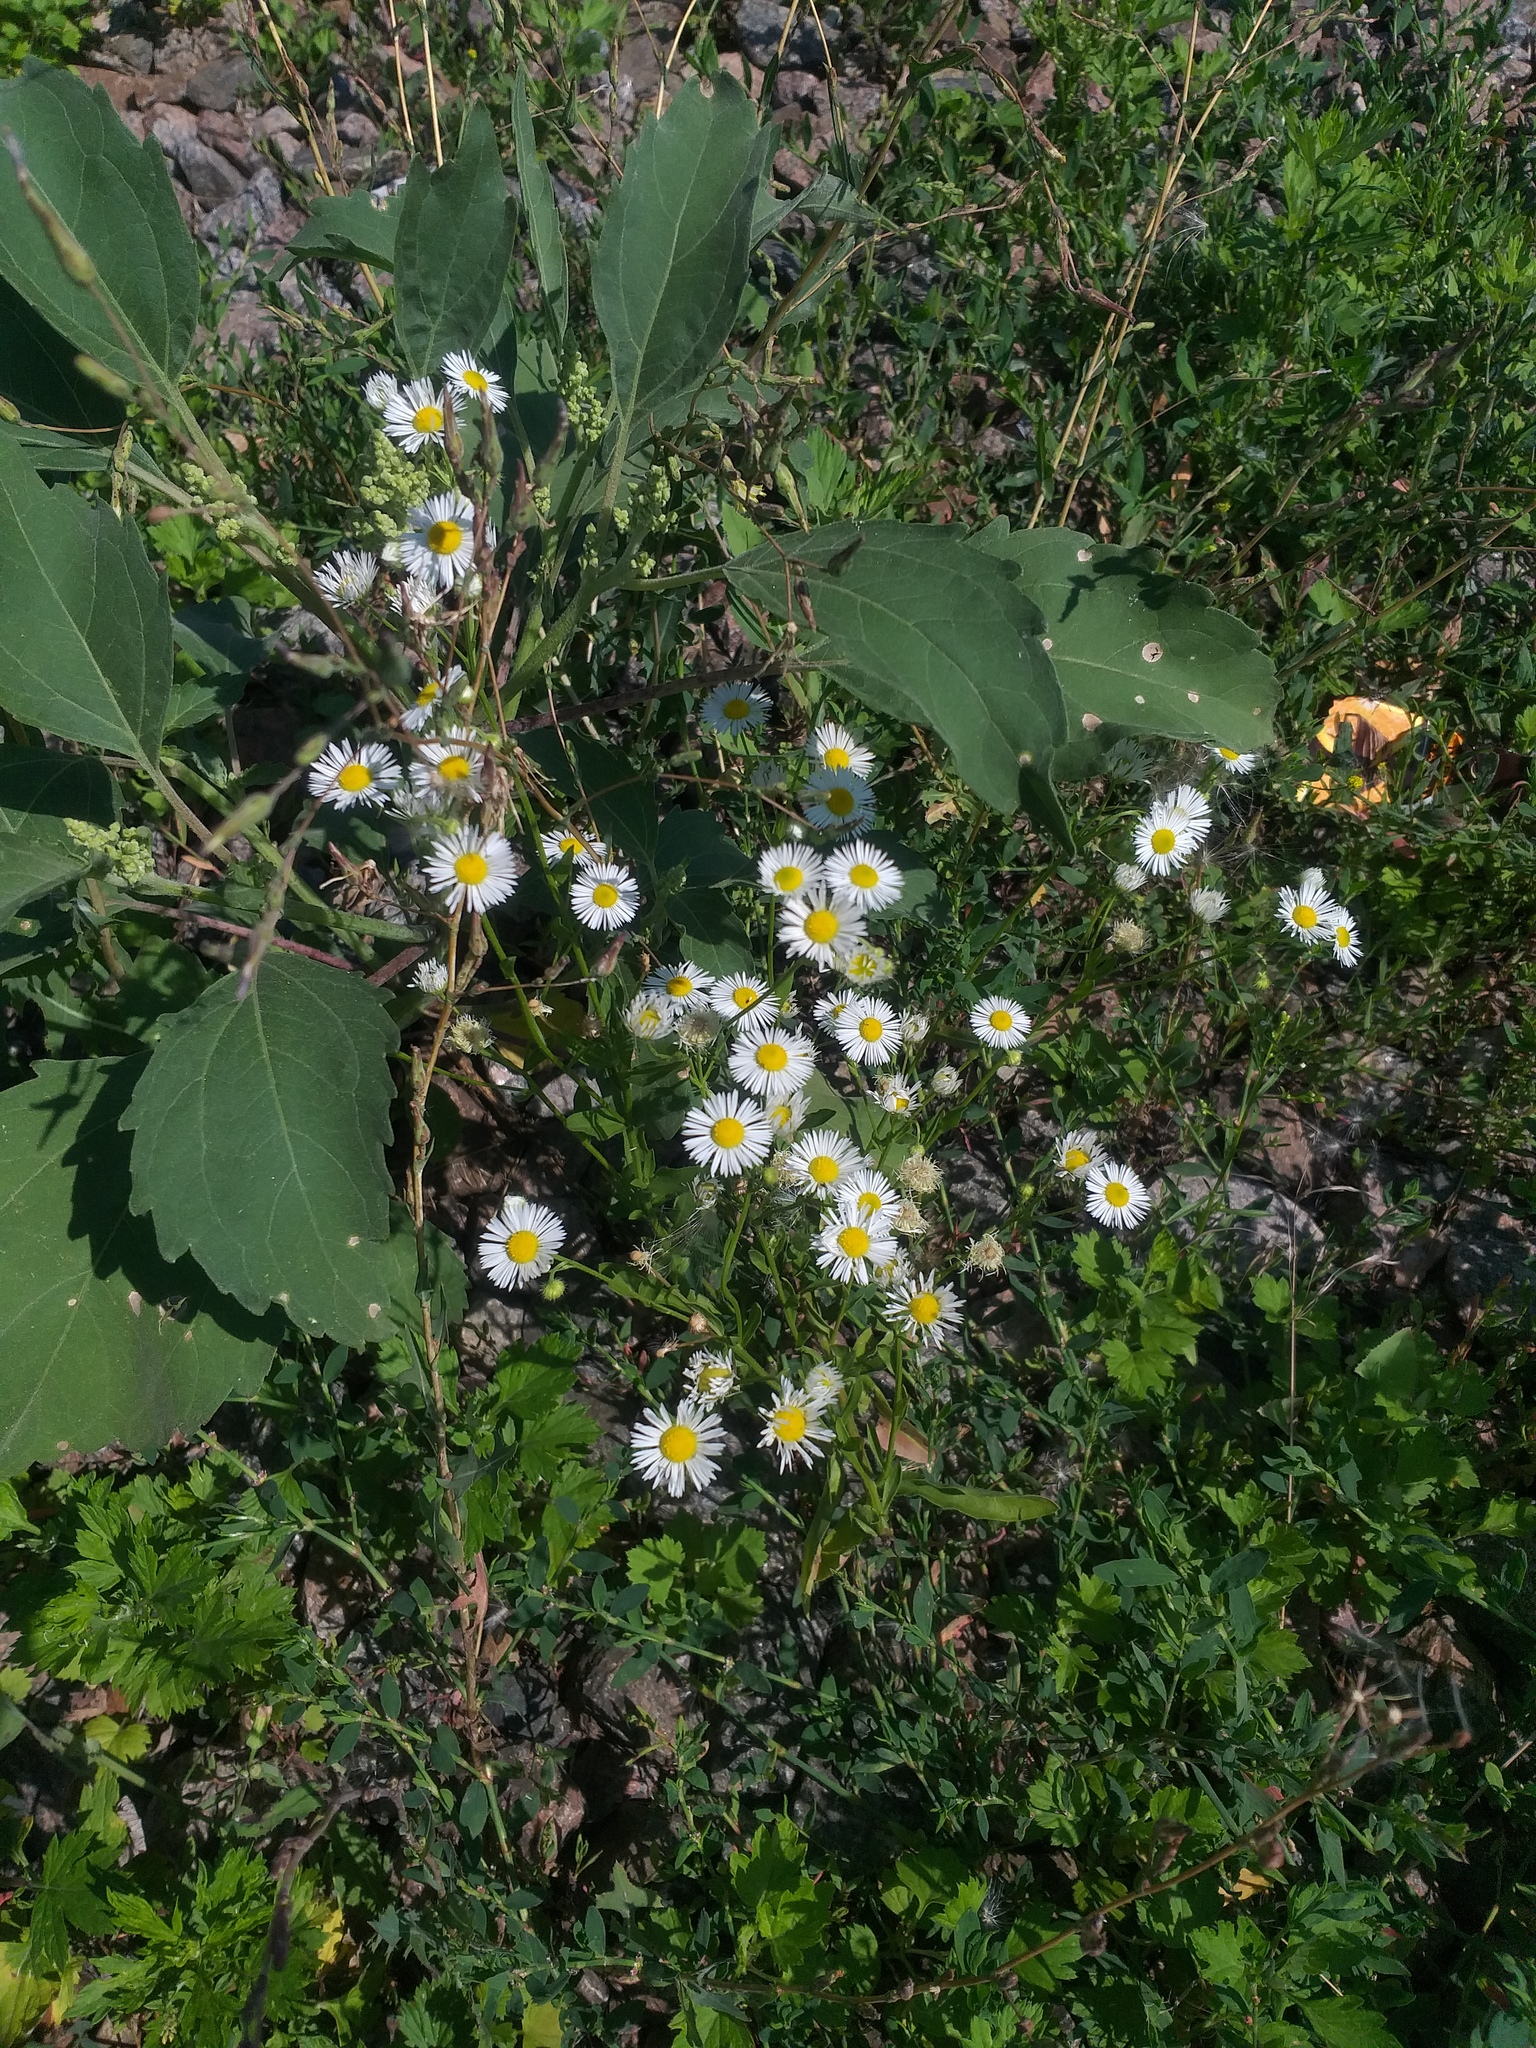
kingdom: Plantae
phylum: Tracheophyta
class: Magnoliopsida
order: Asterales
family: Asteraceae
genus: Erigeron
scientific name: Erigeron annuus
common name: Tall fleabane
